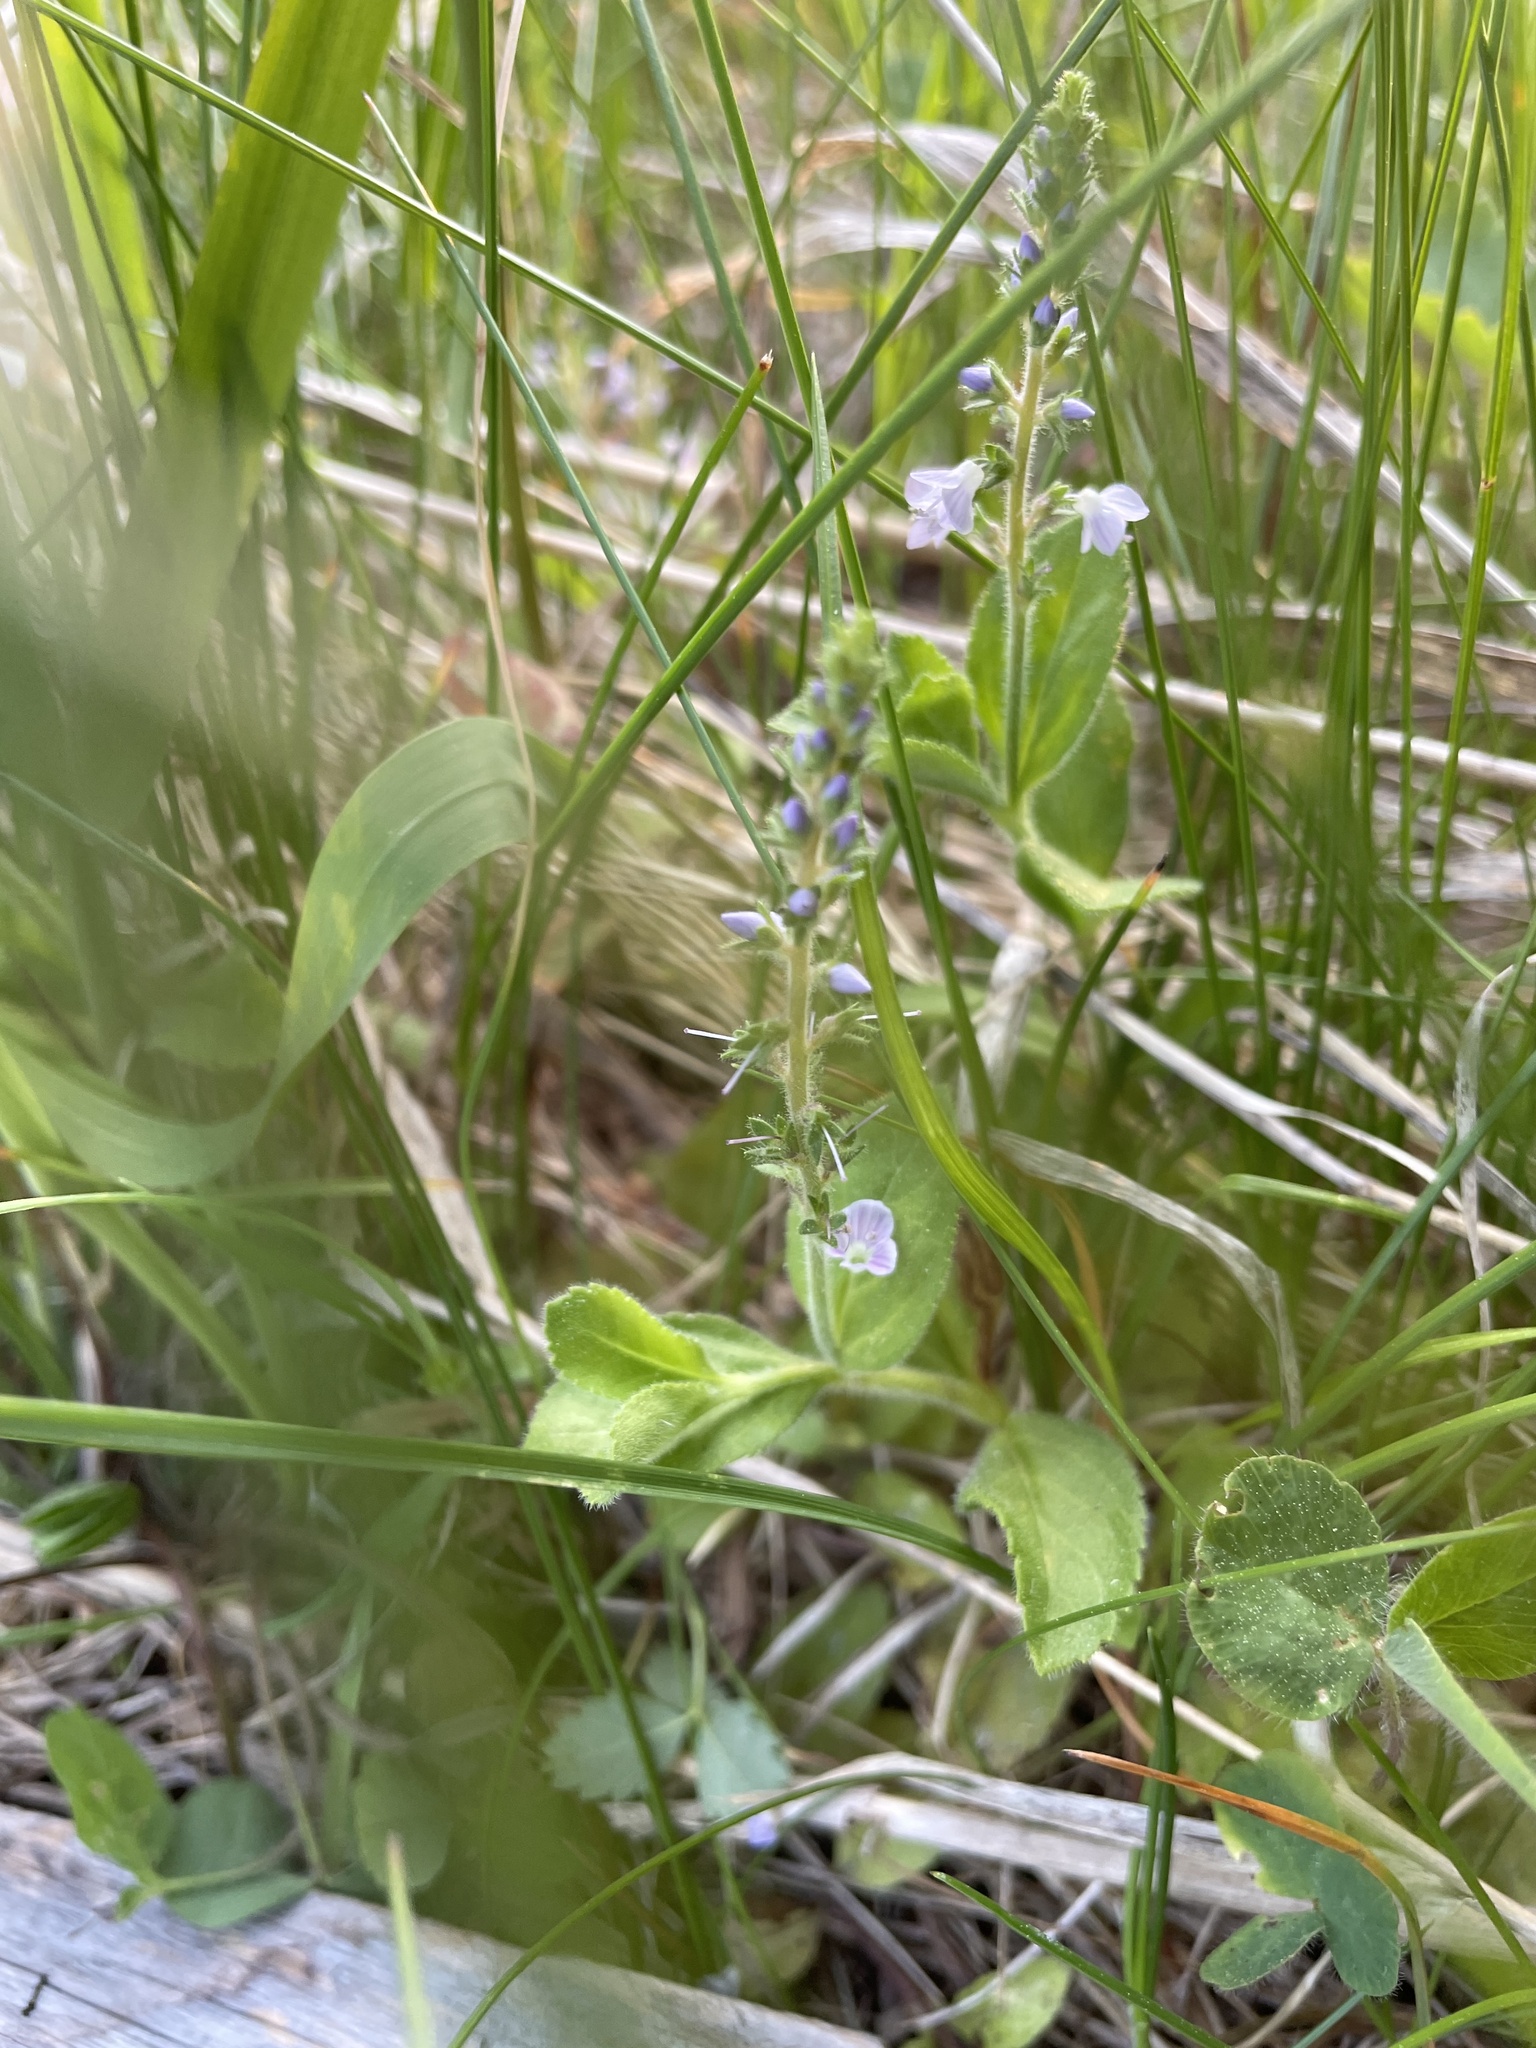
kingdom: Plantae
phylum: Tracheophyta
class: Magnoliopsida
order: Lamiales
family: Plantaginaceae
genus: Veronica
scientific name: Veronica officinalis
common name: Common speedwell
